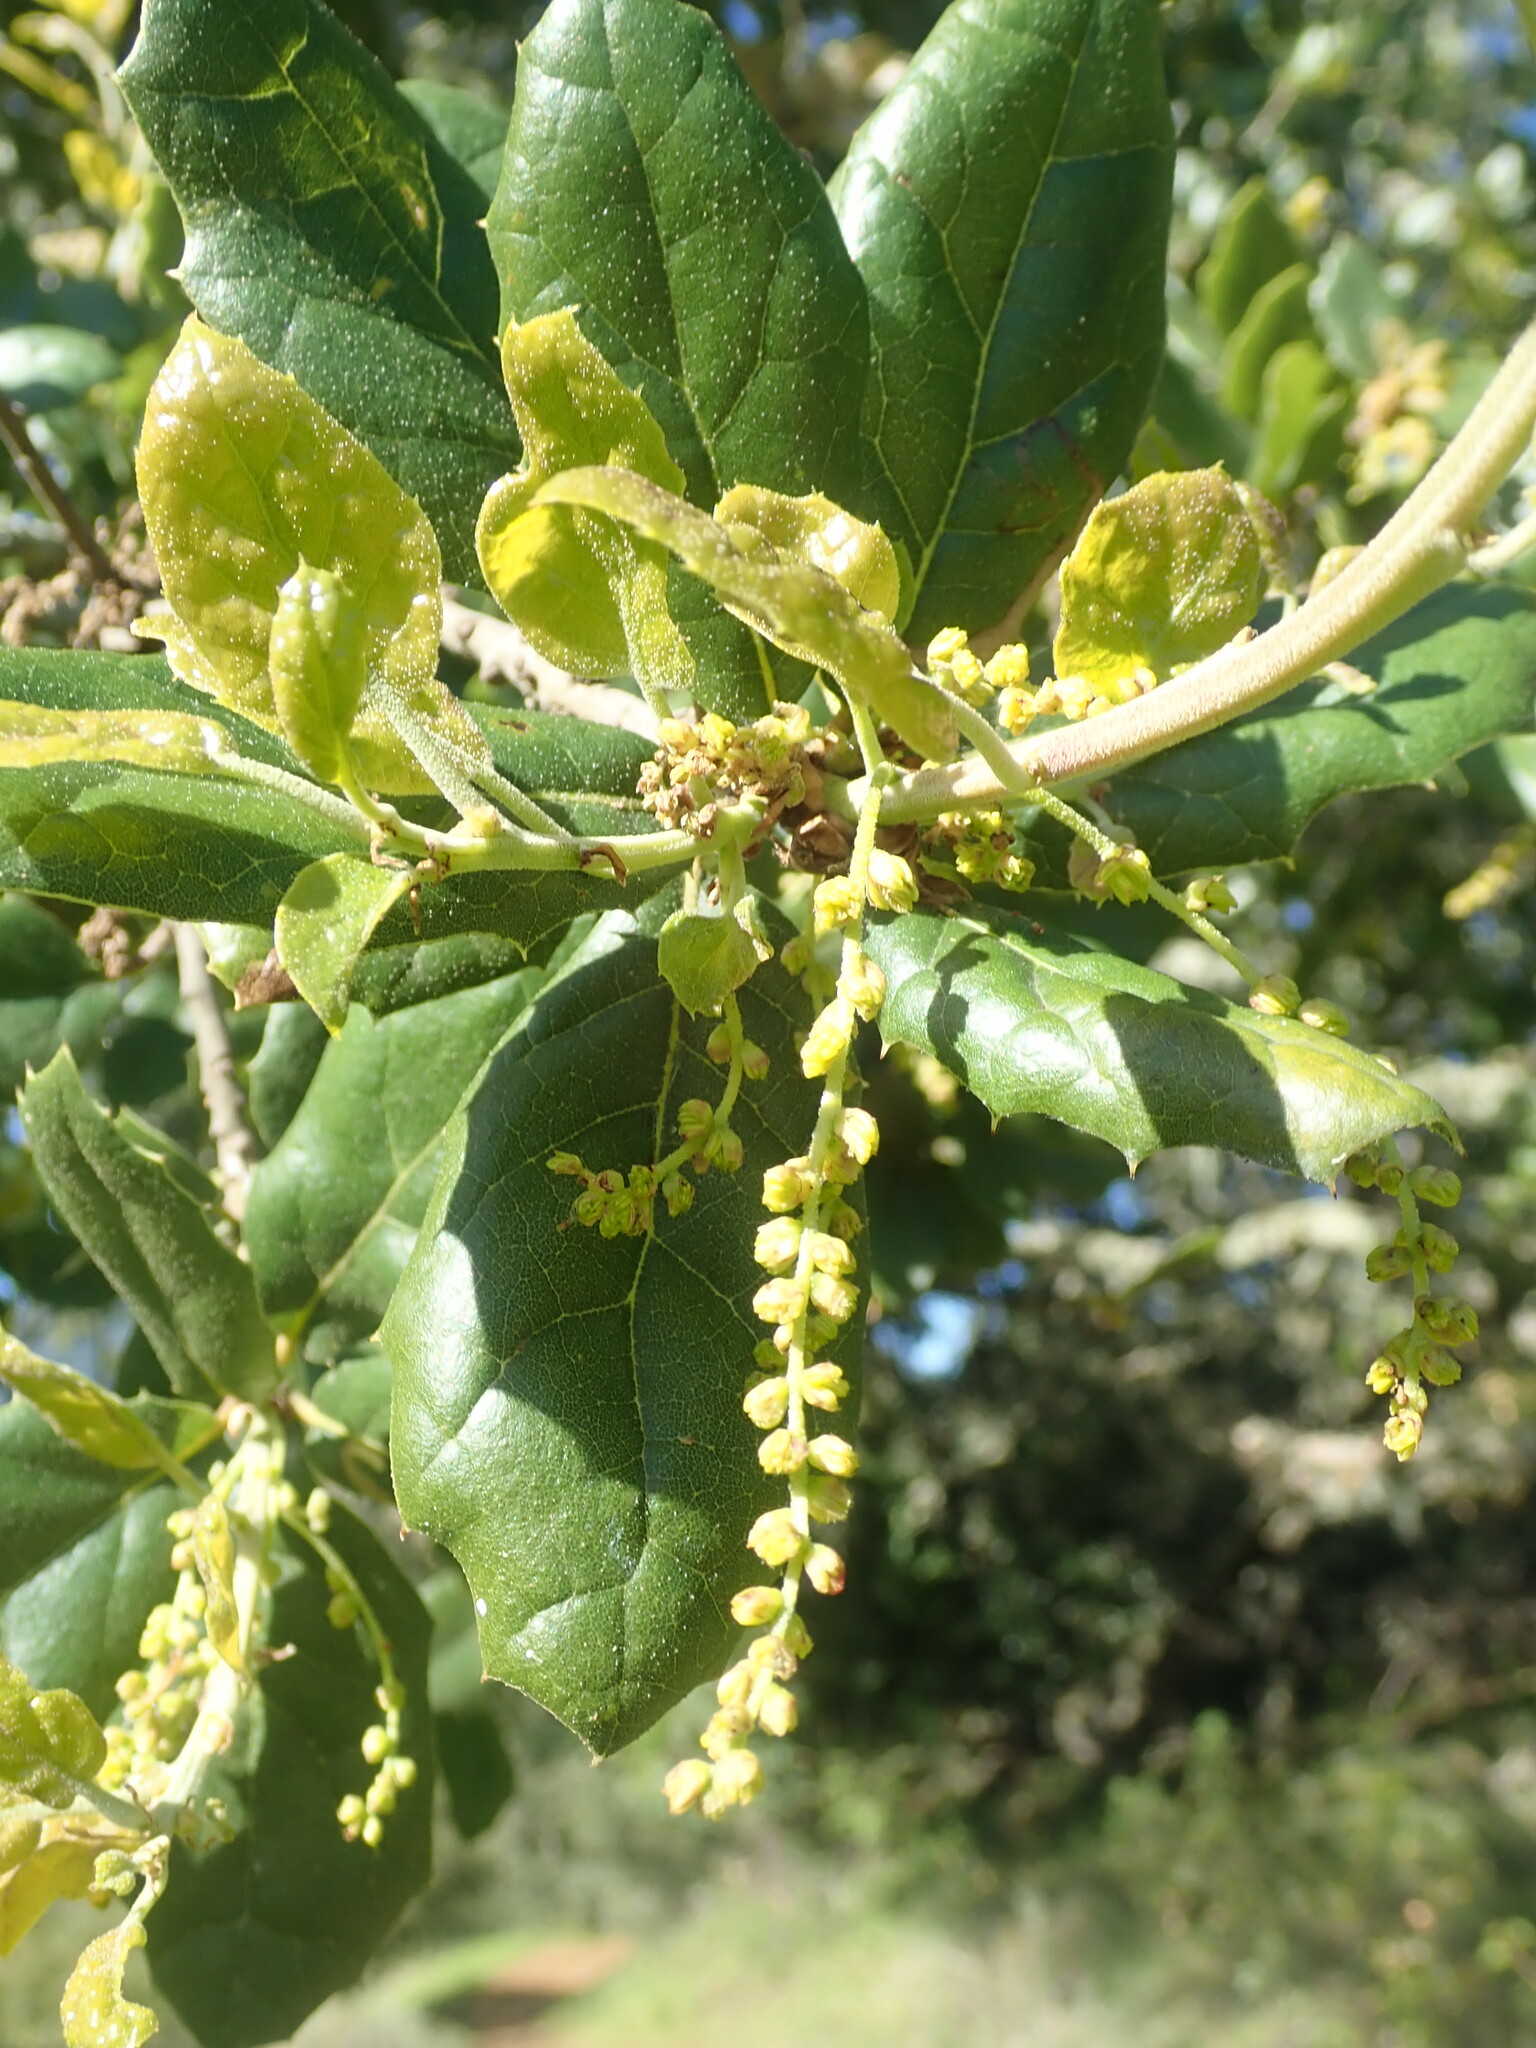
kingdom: Plantae
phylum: Tracheophyta
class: Magnoliopsida
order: Fagales
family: Fagaceae
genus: Quercus
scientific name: Quercus agrifolia
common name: California live oak
